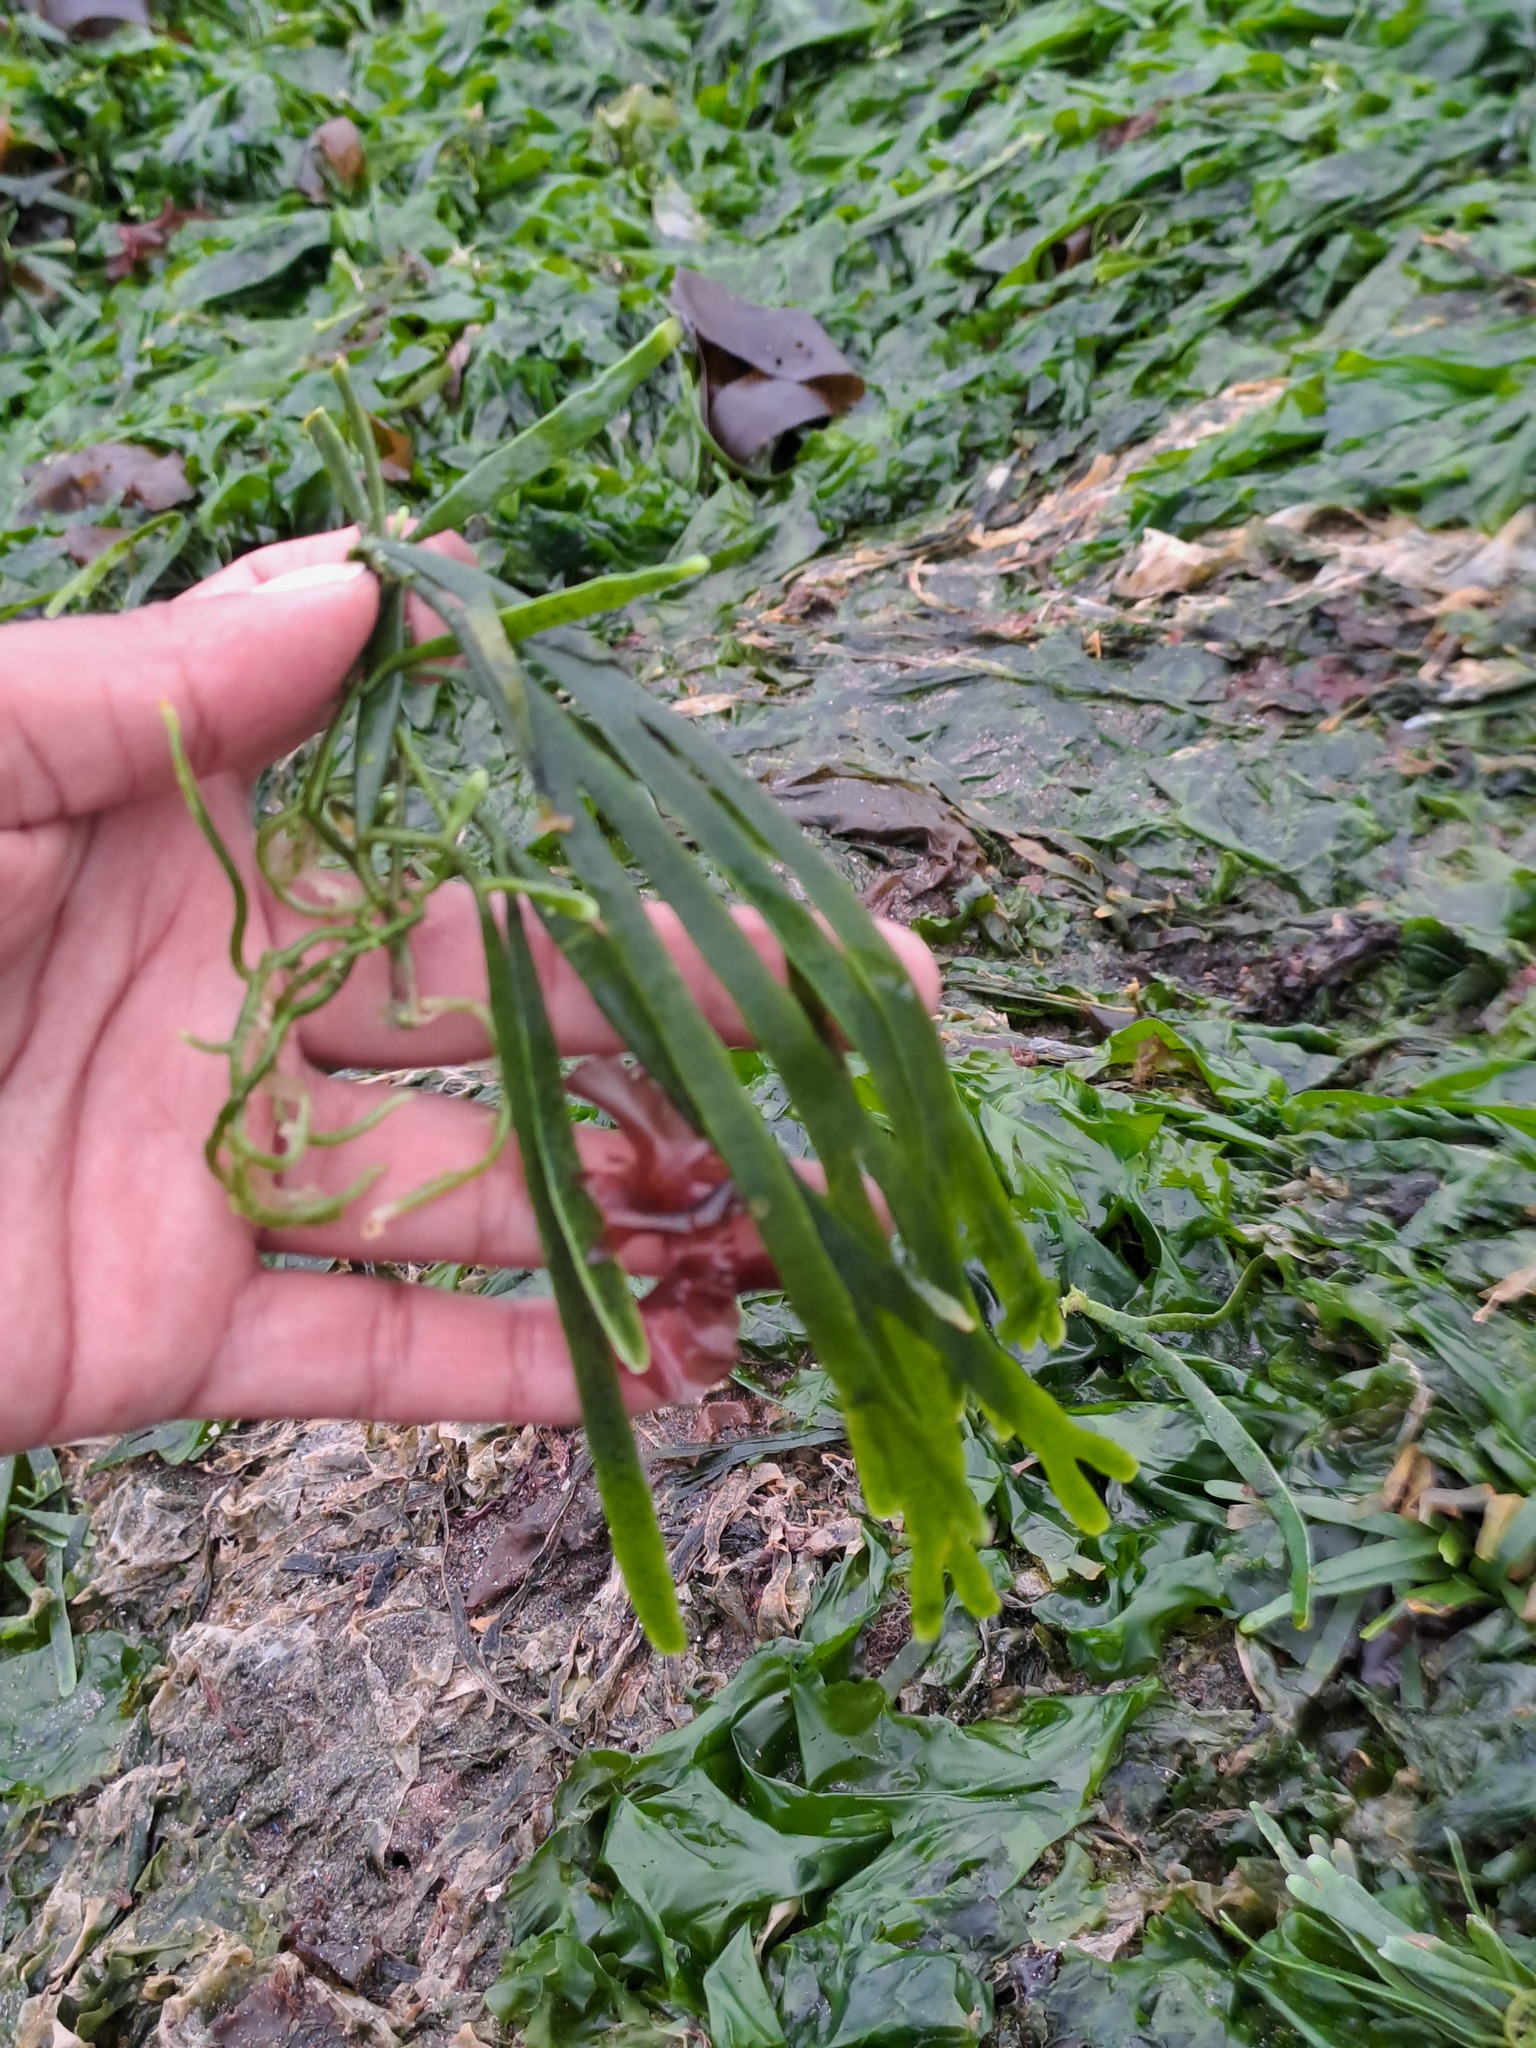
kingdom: Plantae
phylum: Chlorophyta
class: Ulvophyceae
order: Bryopsidales
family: Caulerpaceae
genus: Caulerpa
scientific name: Caulerpa filiformis
